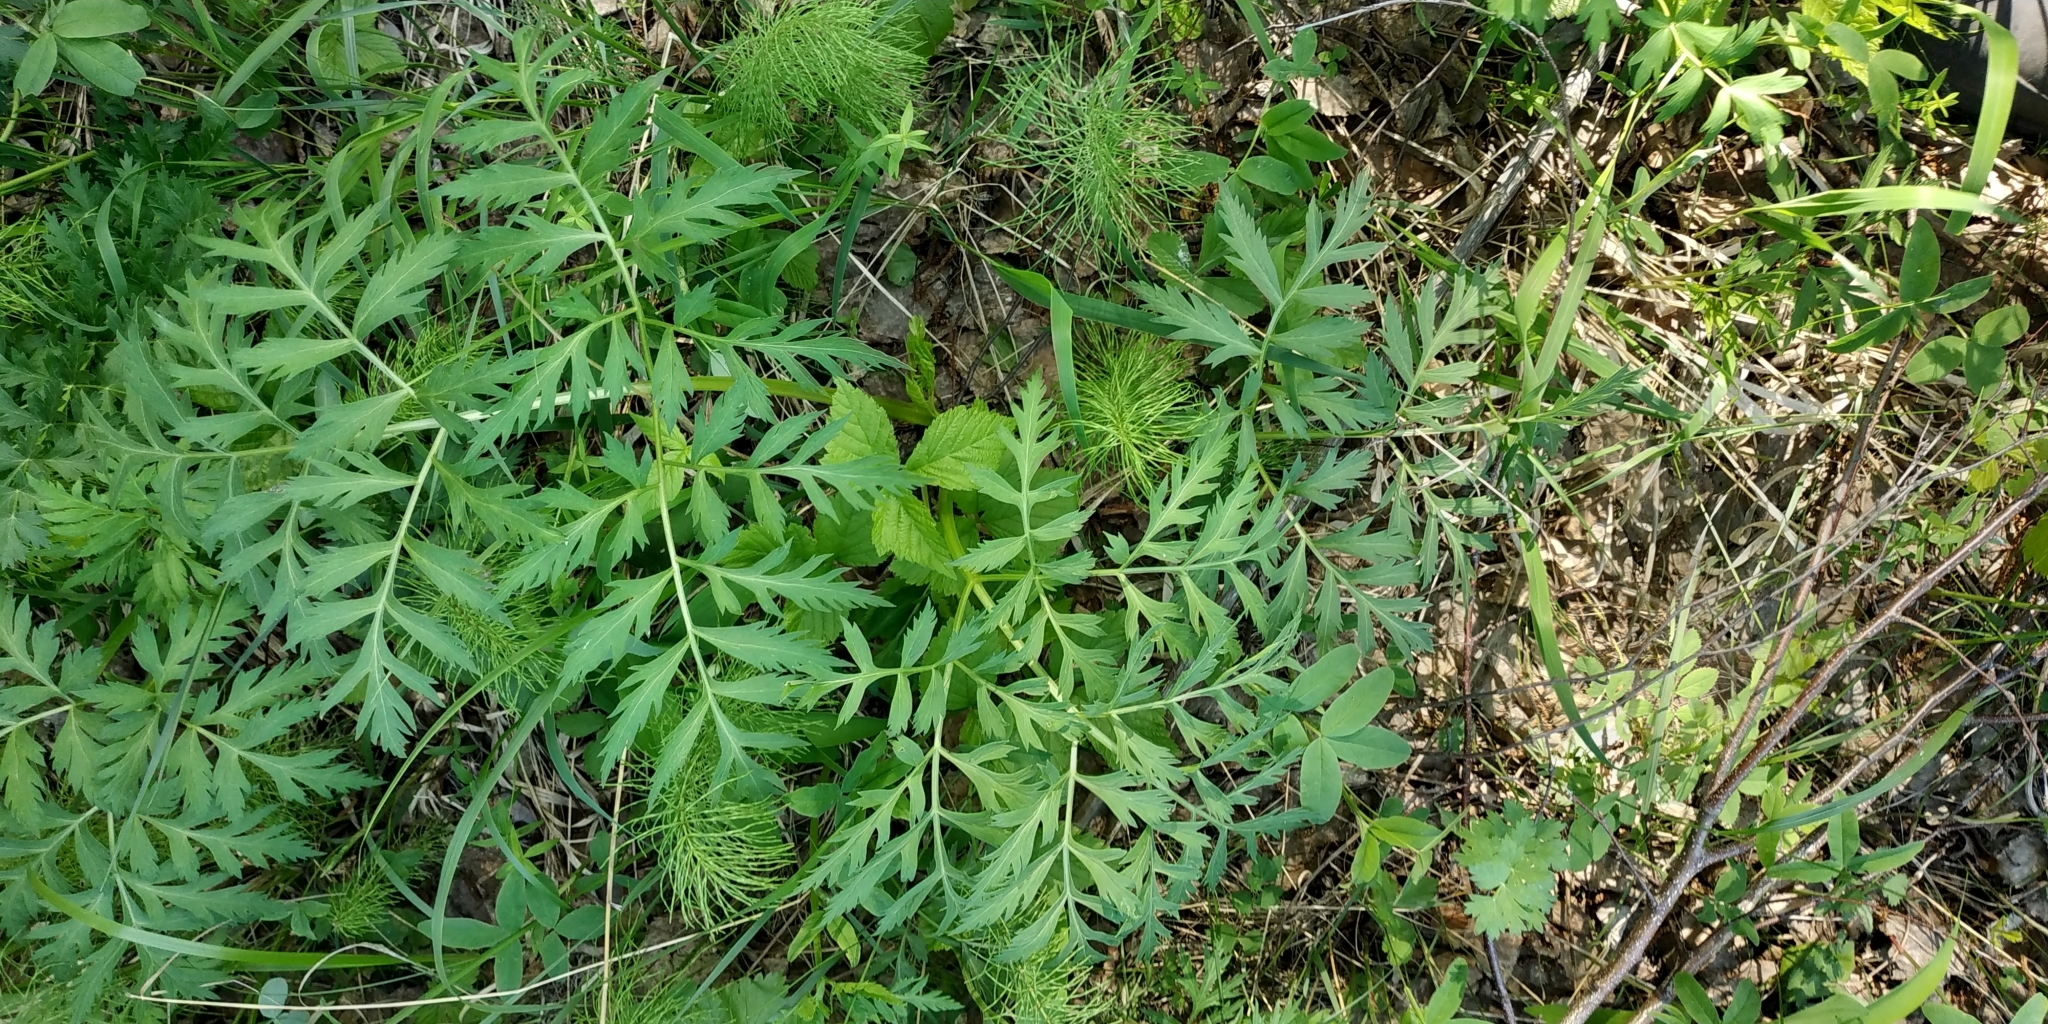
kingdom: Plantae
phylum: Tracheophyta
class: Magnoliopsida
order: Apiales
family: Apiaceae
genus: Pleurospermum
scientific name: Pleurospermum uralense
